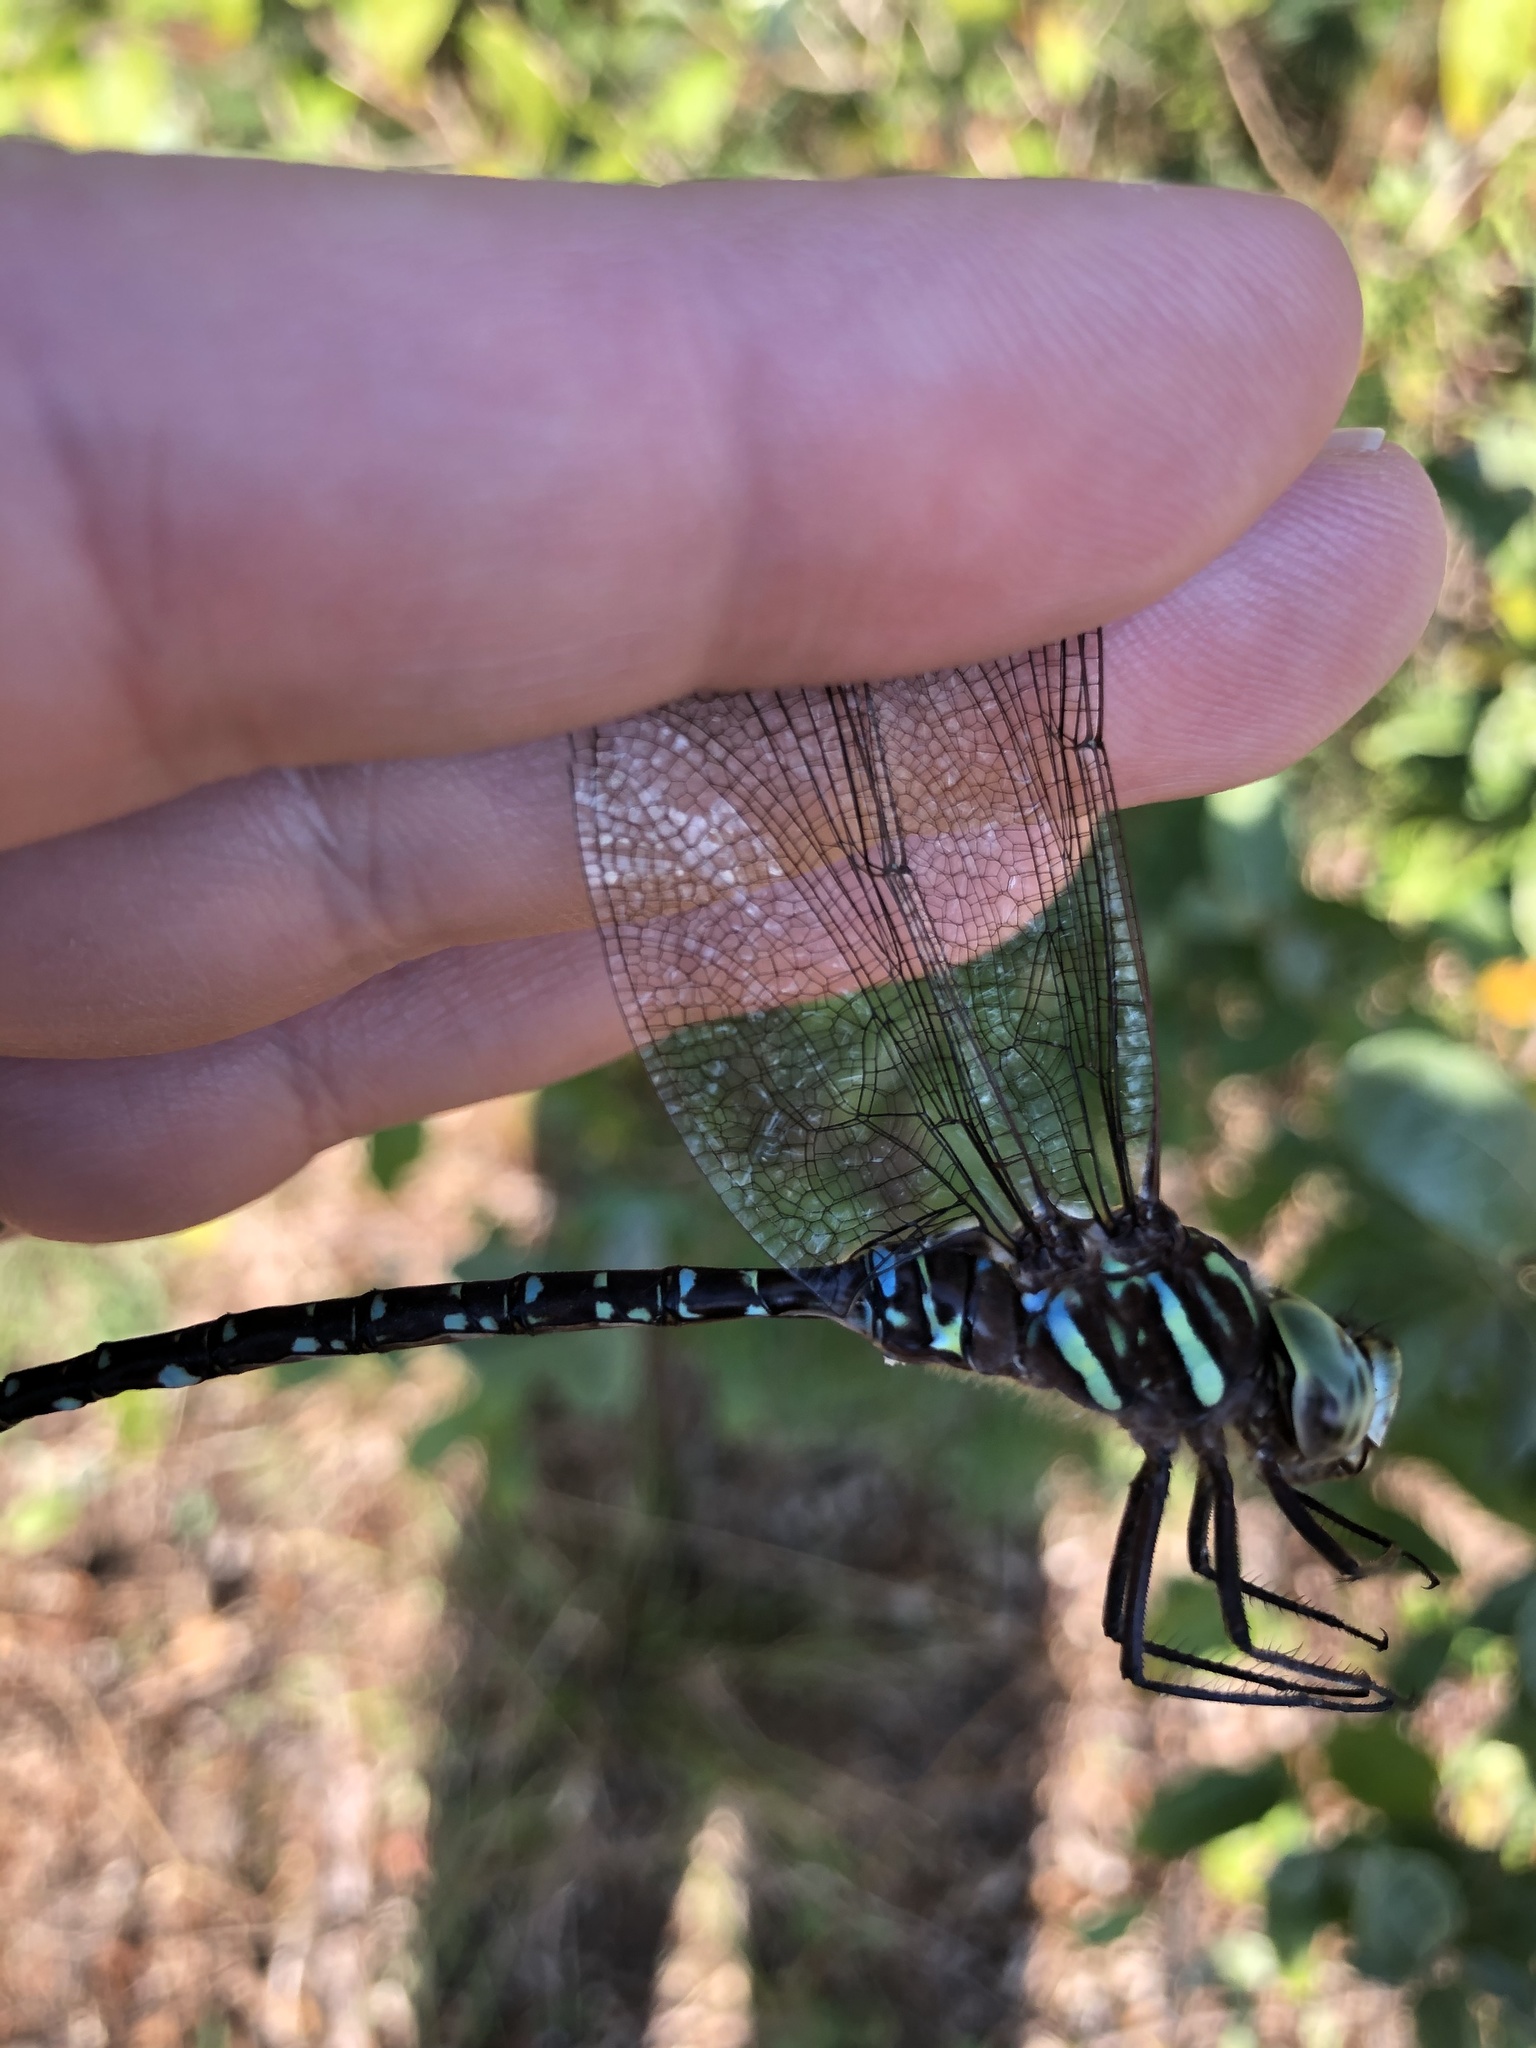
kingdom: Animalia
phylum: Arthropoda
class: Insecta
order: Odonata
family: Aeshnidae
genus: Aeshna
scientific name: Aeshna umbrosa
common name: Shadow darner
